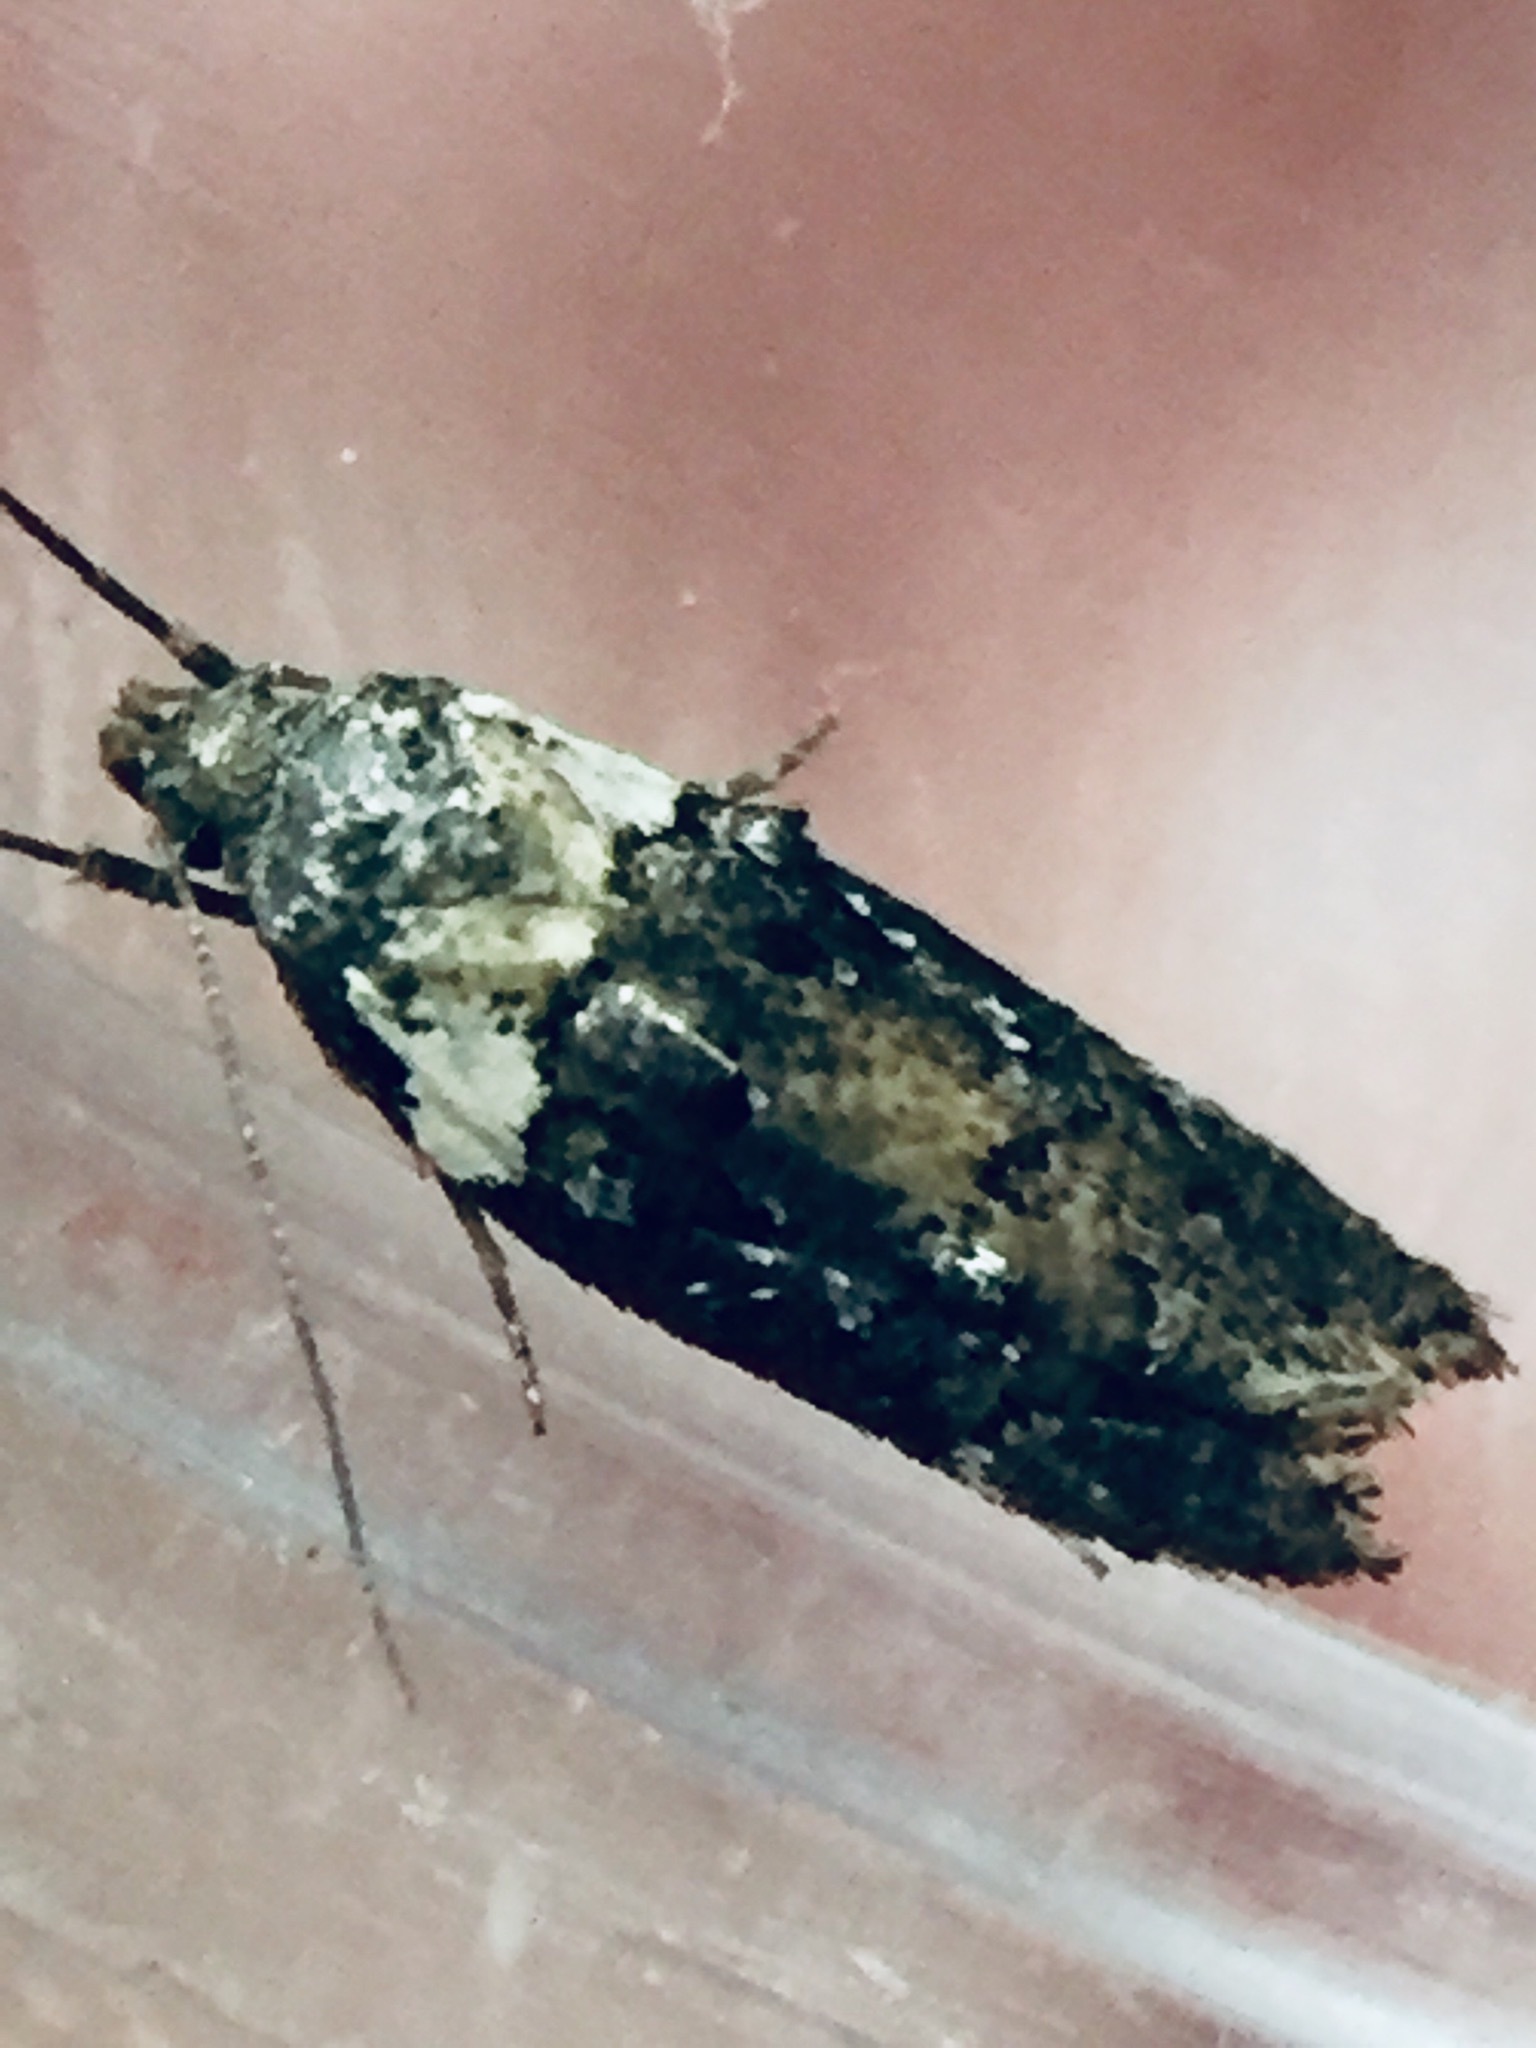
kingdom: Animalia
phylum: Arthropoda
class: Insecta
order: Lepidoptera
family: Oecophoridae
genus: Trachypepla
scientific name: Trachypepla conspicuella
